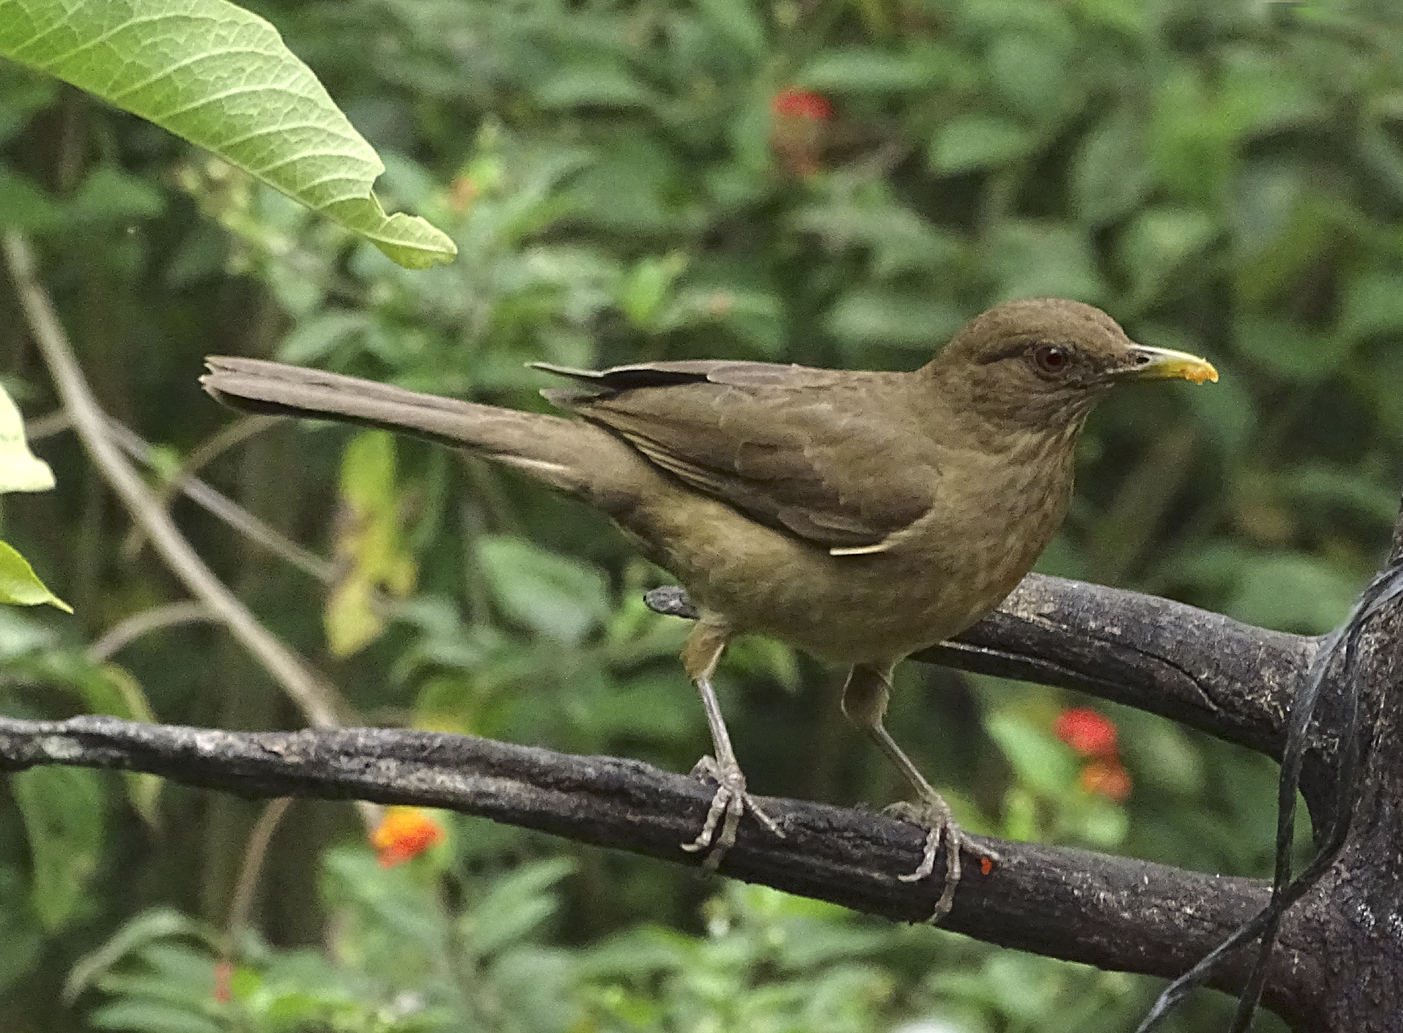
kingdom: Animalia
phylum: Chordata
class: Aves
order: Passeriformes
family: Turdidae
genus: Turdus
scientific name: Turdus grayi
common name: Clay-colored thrush
